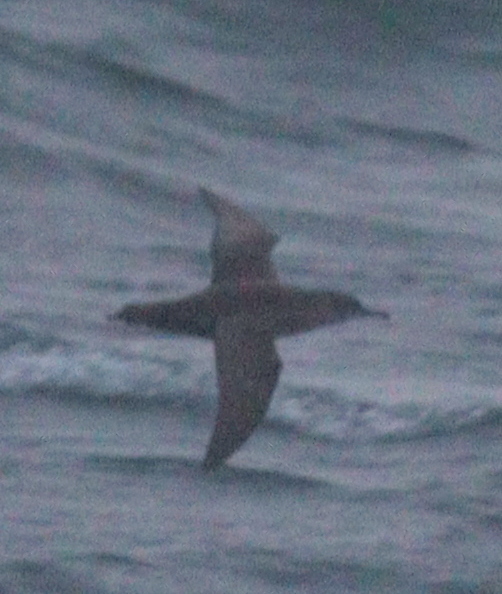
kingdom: Animalia
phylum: Chordata
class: Aves
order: Procellariiformes
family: Procellariidae
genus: Puffinus
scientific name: Puffinus mauretanicus
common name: Balearic shearwater
